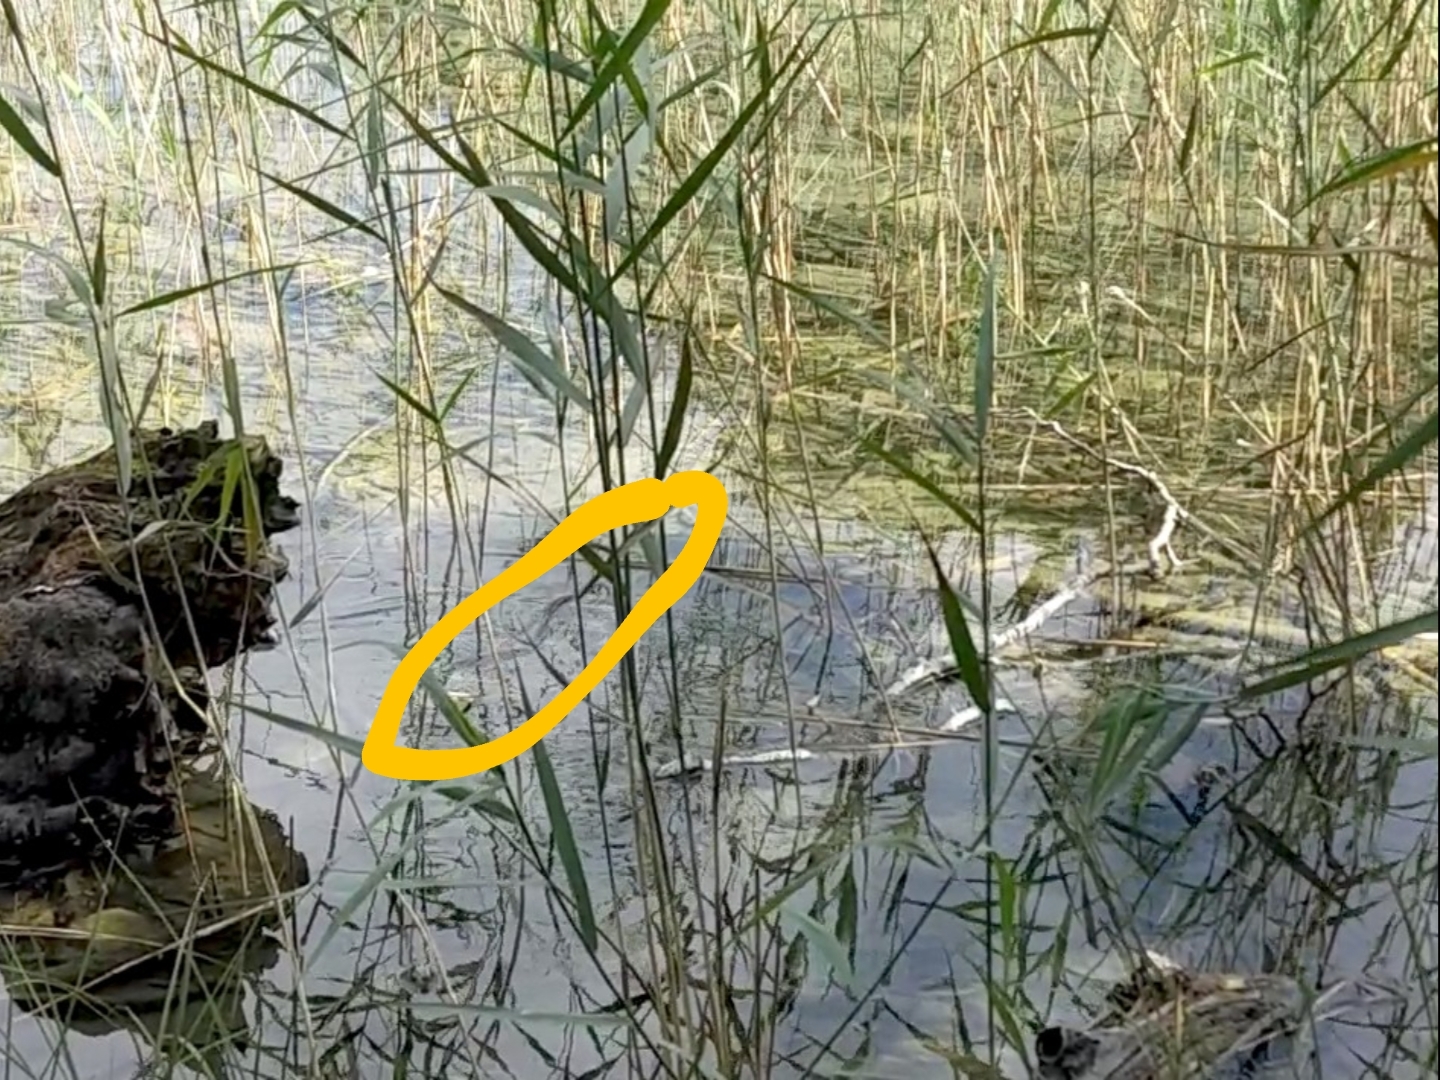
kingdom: Animalia
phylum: Chordata
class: Squamata
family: Colubridae
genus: Natrix
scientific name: Natrix natrix
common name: Grass snake
